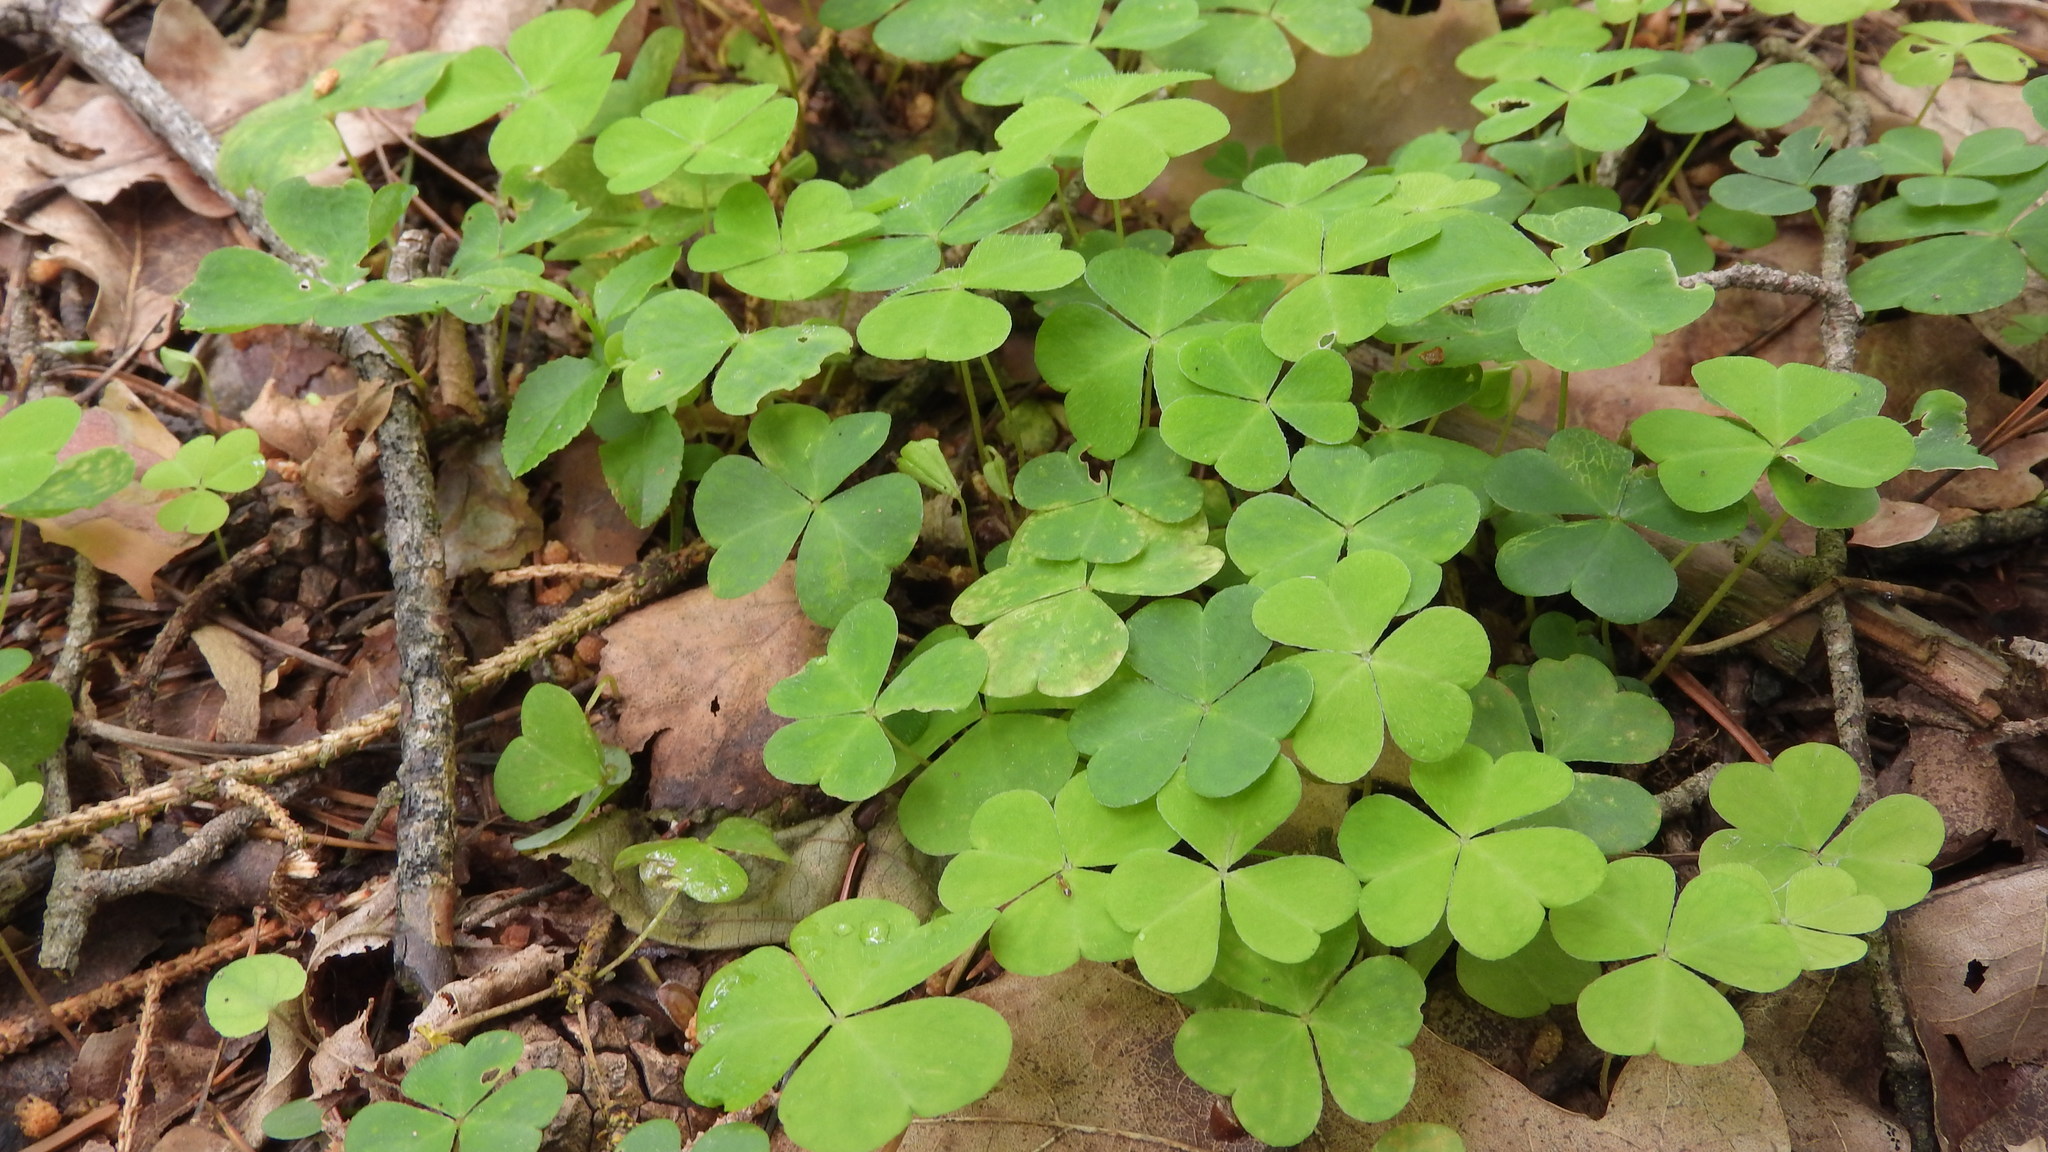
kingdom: Plantae
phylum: Tracheophyta
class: Magnoliopsida
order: Oxalidales
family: Oxalidaceae
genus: Oxalis
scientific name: Oxalis acetosella
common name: Wood-sorrel
